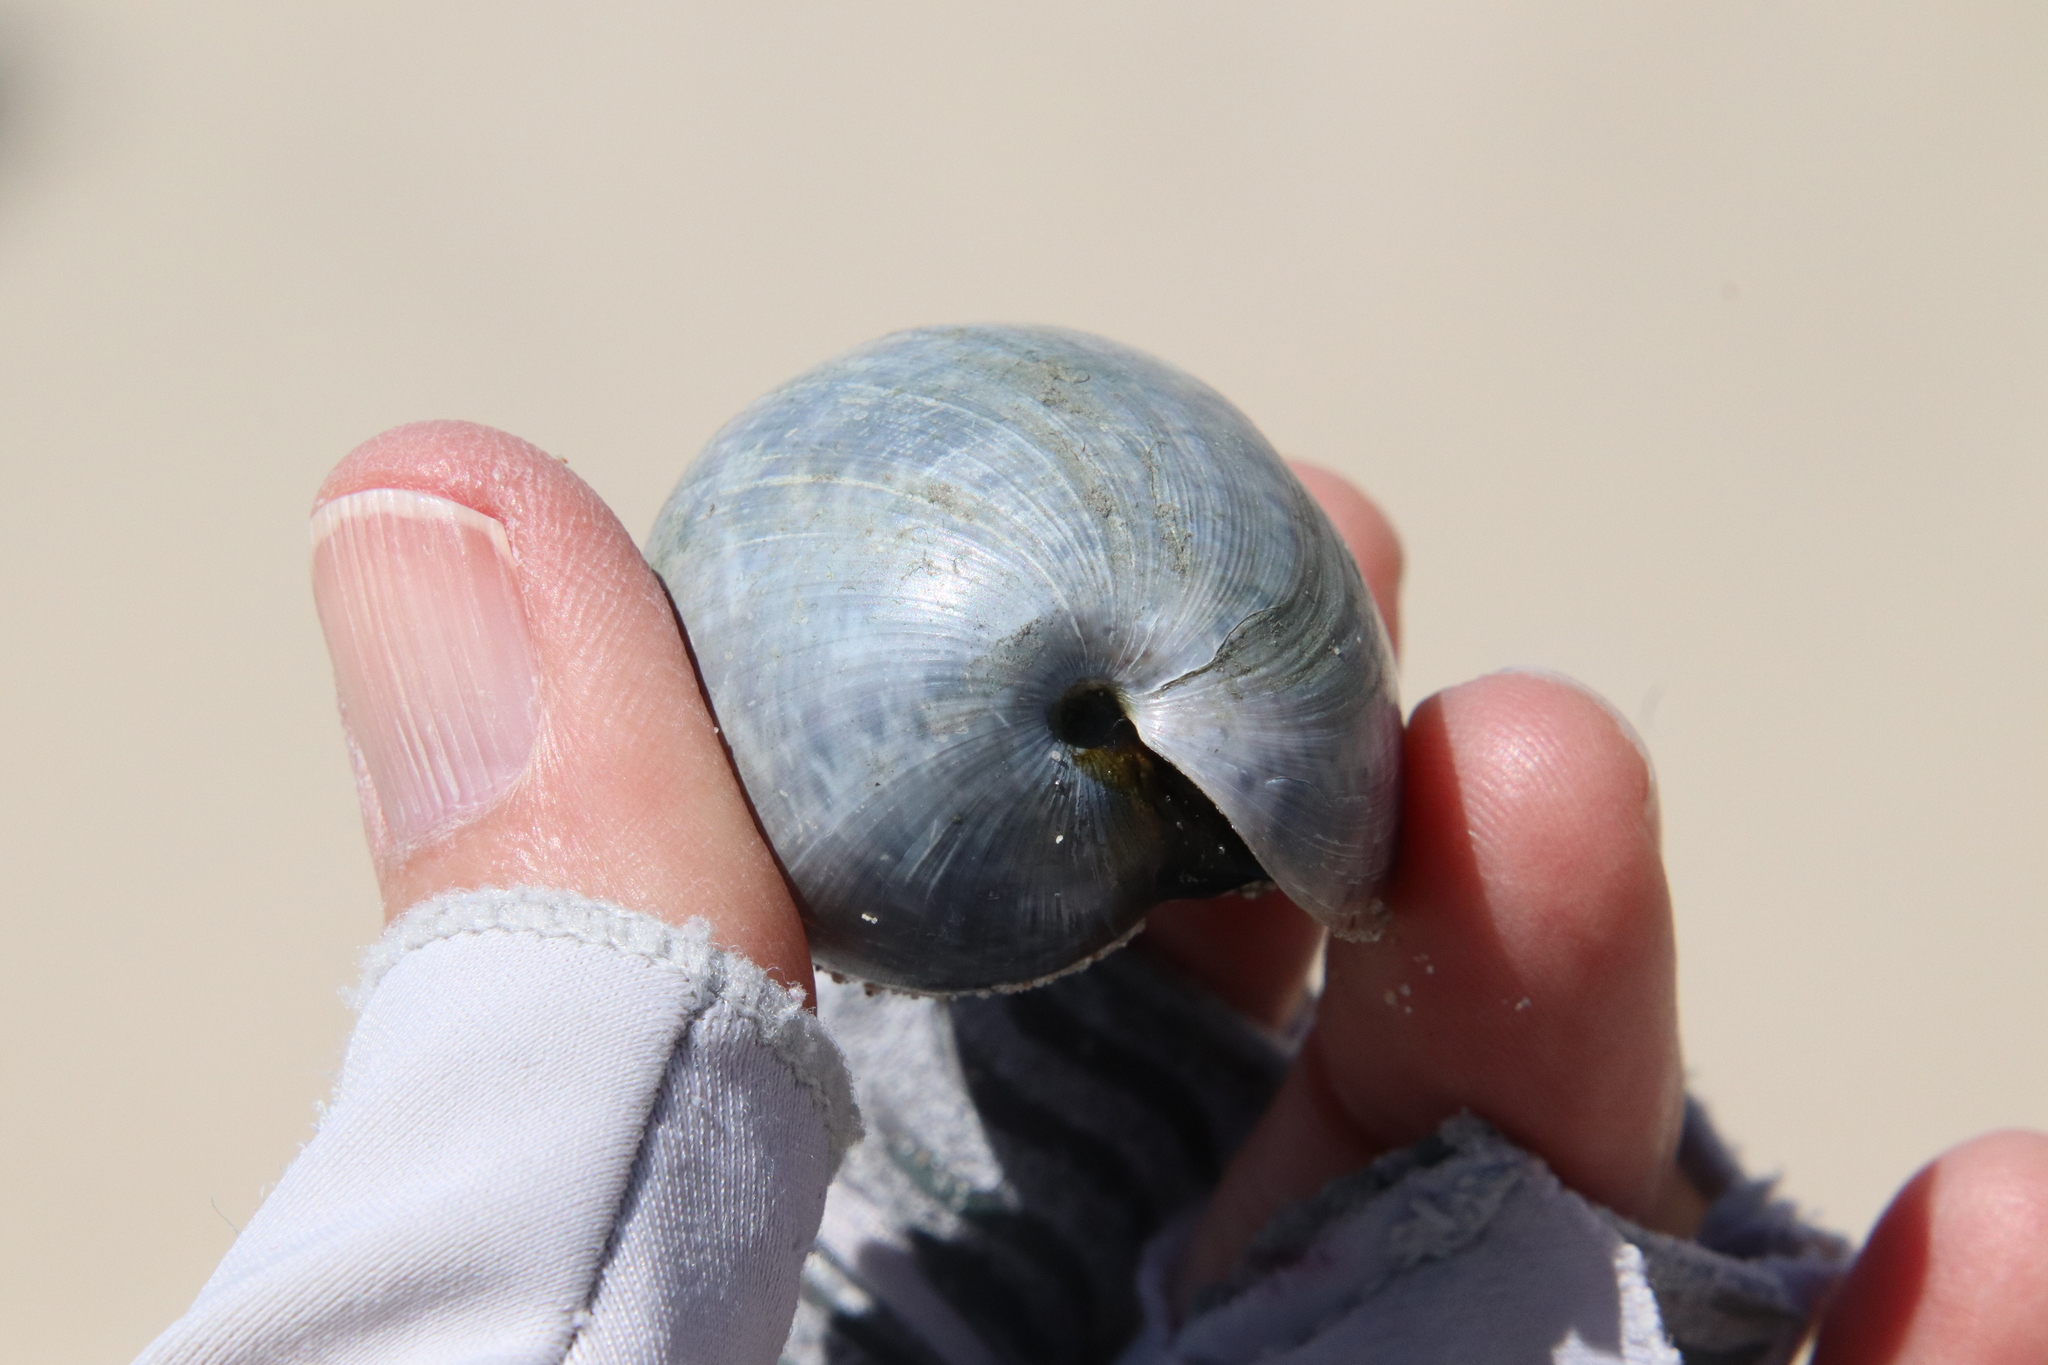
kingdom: Animalia
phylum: Mollusca
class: Gastropoda
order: Cephalaspidea
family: Bullidae
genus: Bulla
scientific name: Bulla gouldiana
